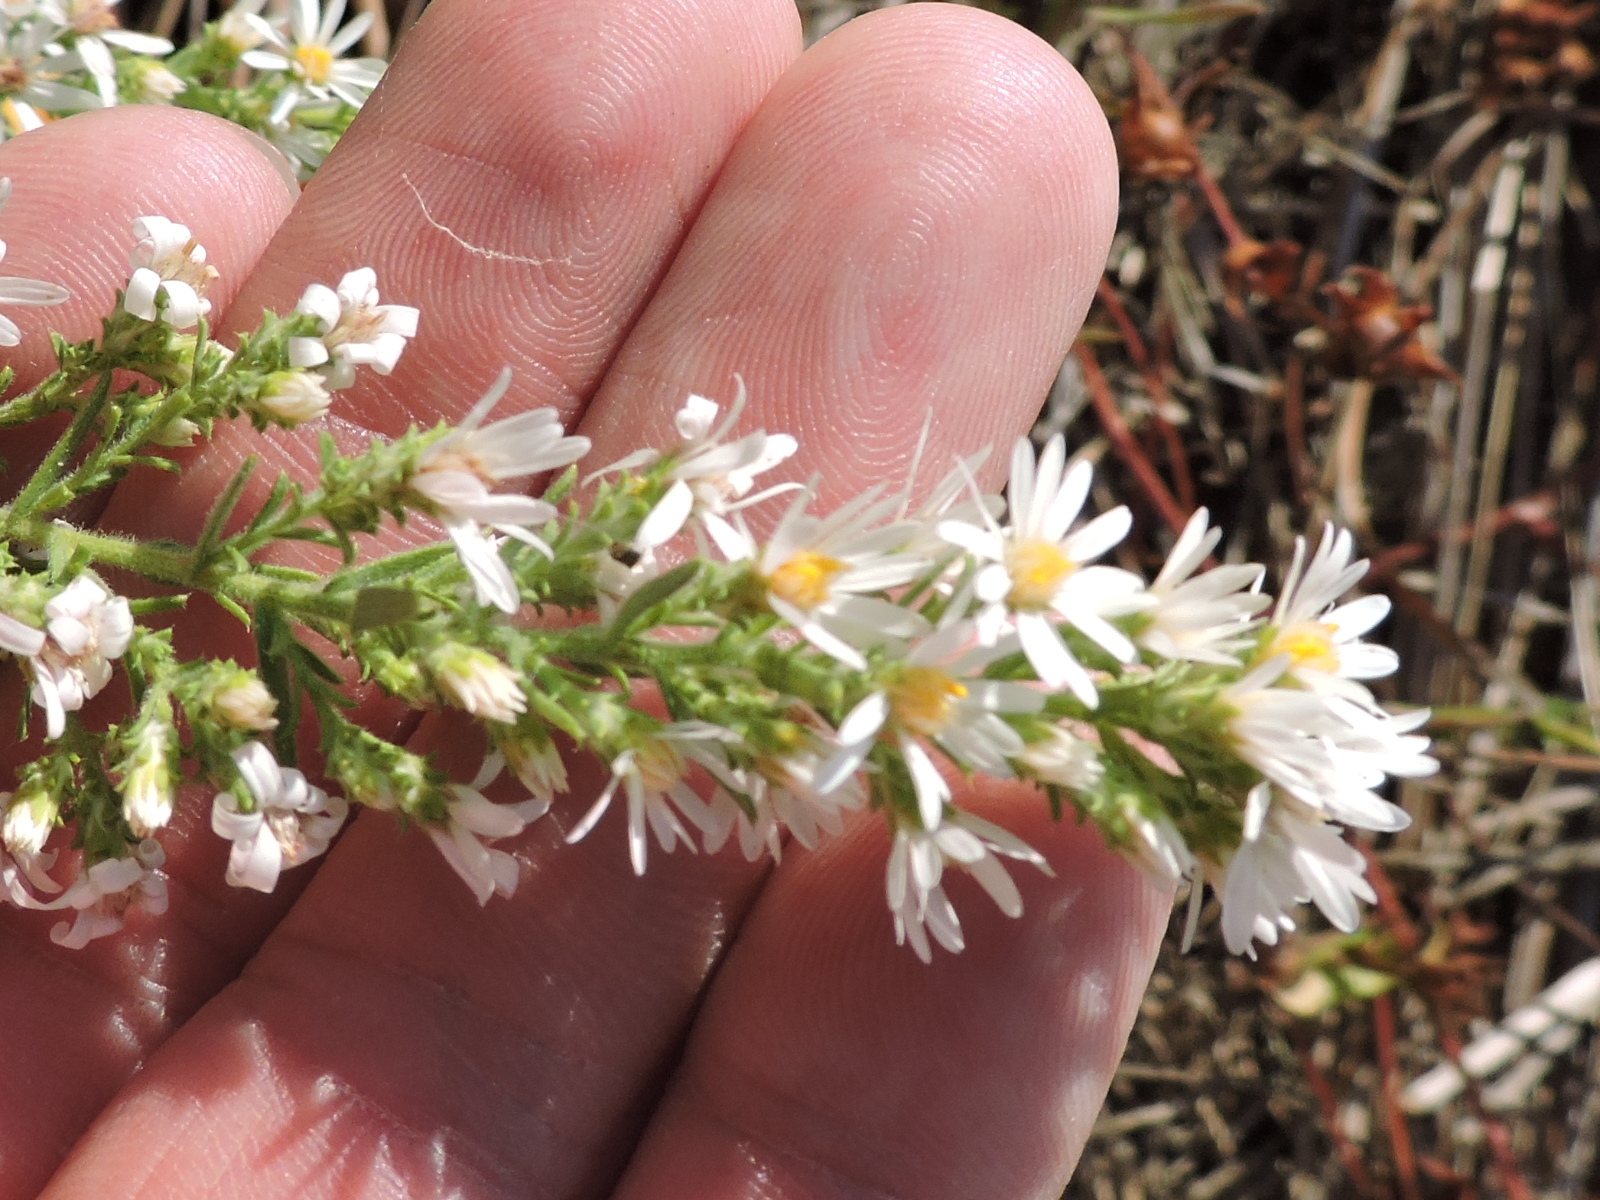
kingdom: Plantae
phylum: Tracheophyta
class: Magnoliopsida
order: Asterales
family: Asteraceae
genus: Symphyotrichum
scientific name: Symphyotrichum ericoides
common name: Heath aster
